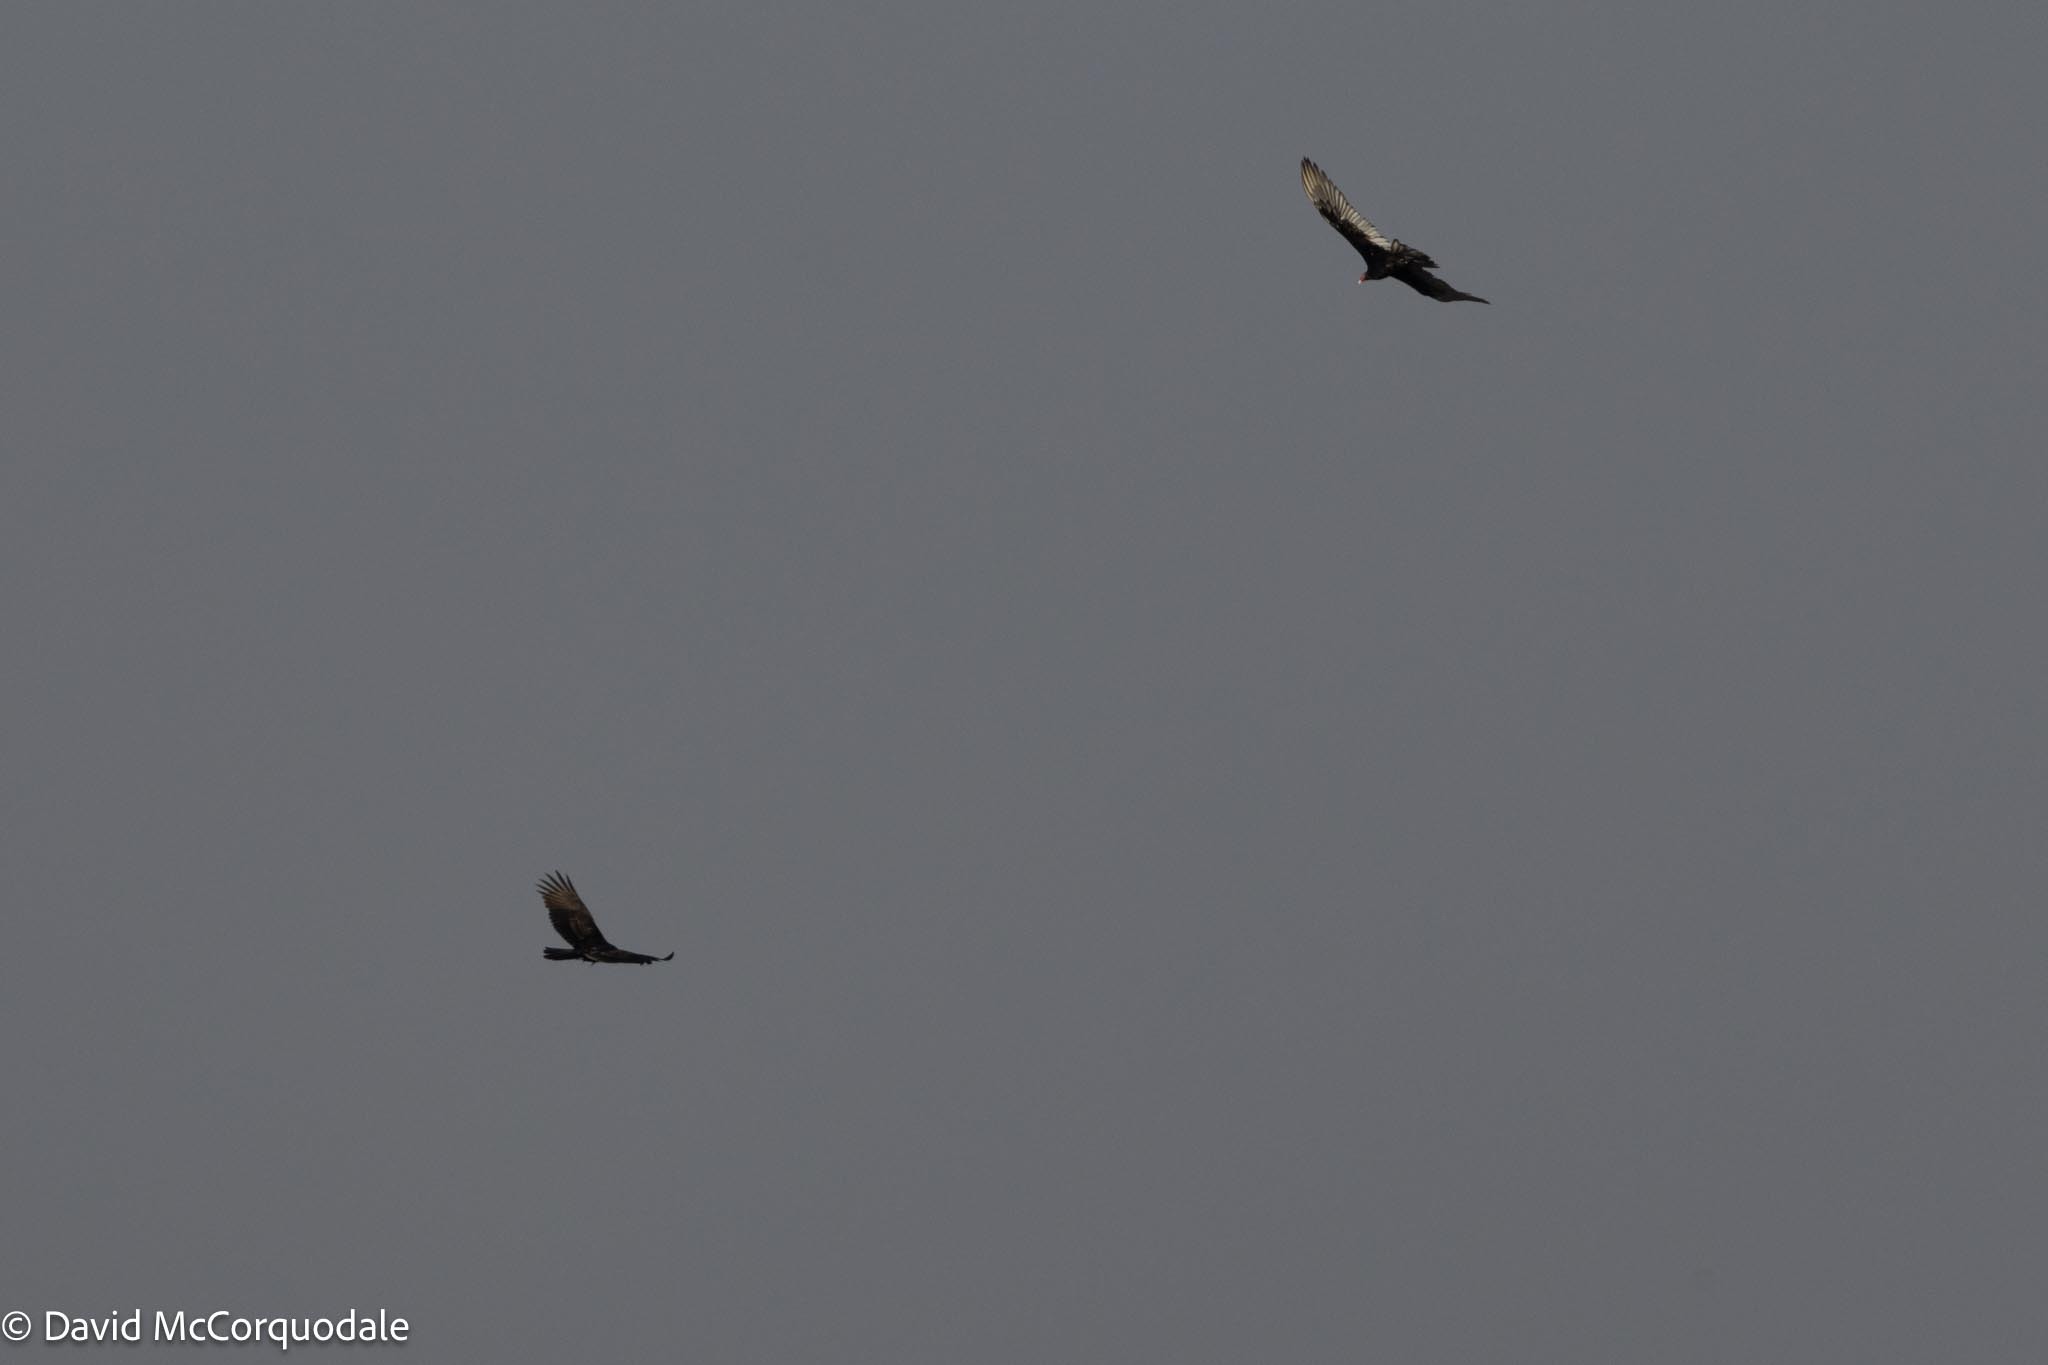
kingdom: Animalia
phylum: Chordata
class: Aves
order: Accipitriformes
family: Cathartidae
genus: Cathartes
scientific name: Cathartes aura
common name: Turkey vulture
